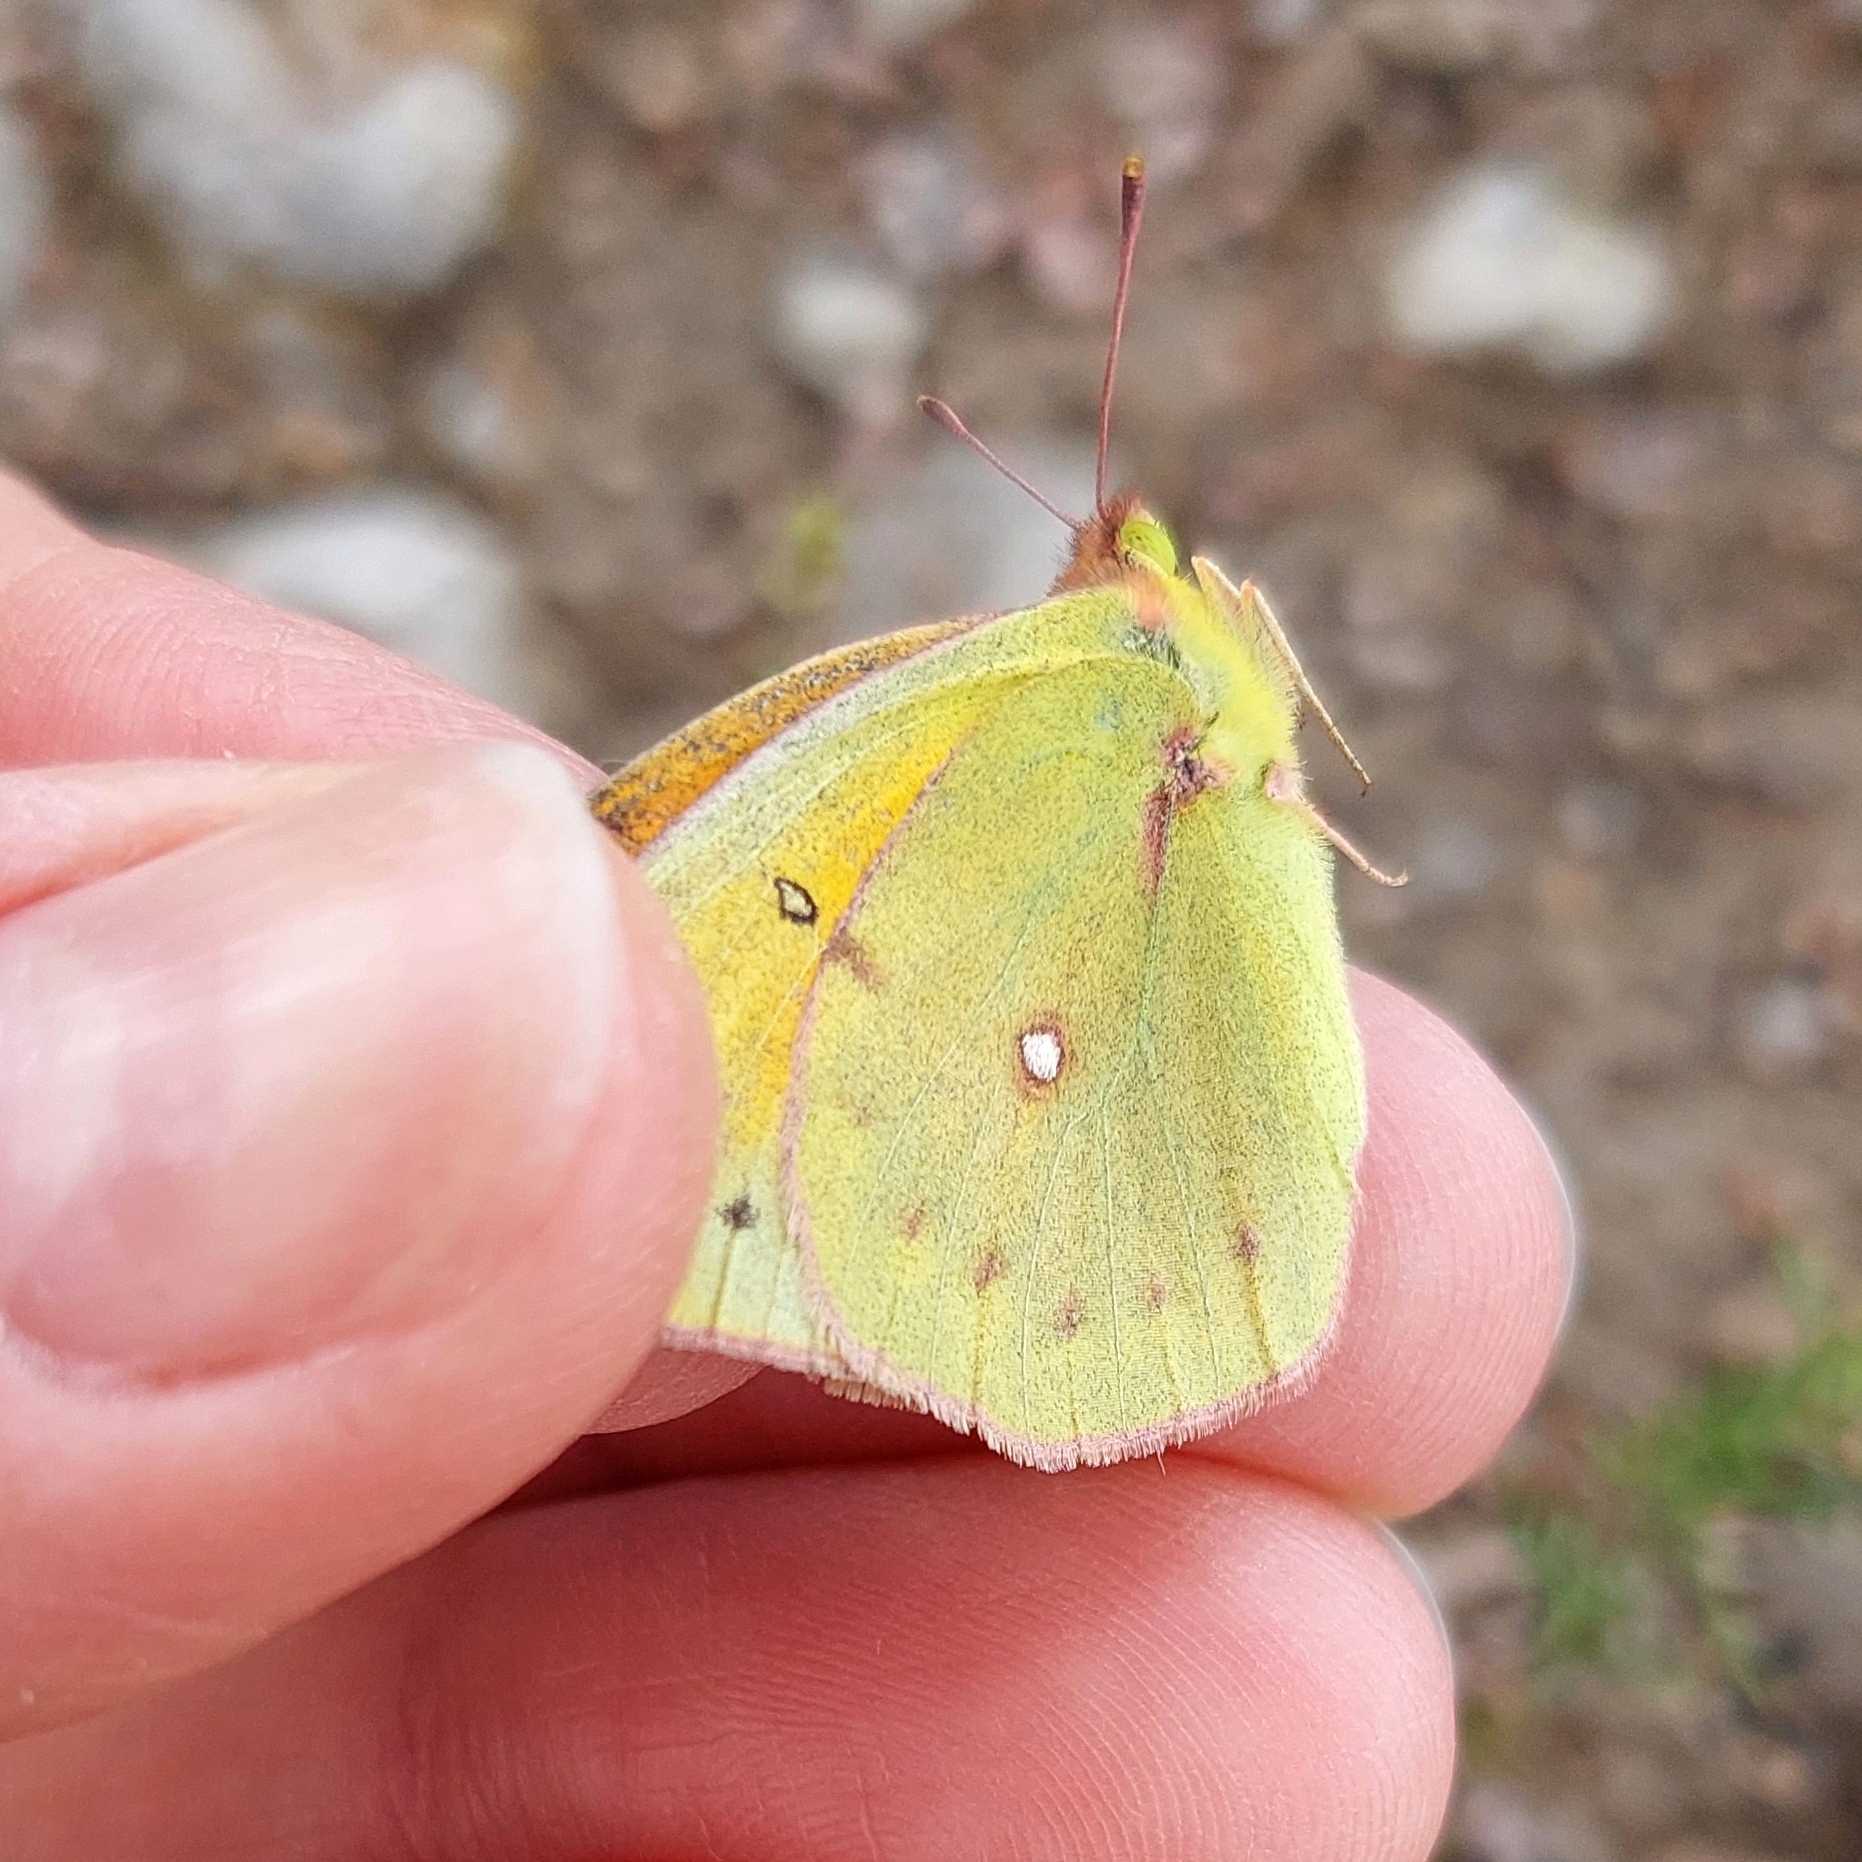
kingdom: Animalia
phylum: Arthropoda
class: Insecta
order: Lepidoptera
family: Pieridae
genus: Colias
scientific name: Colias lesbia
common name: Lesbia clouded yellow
